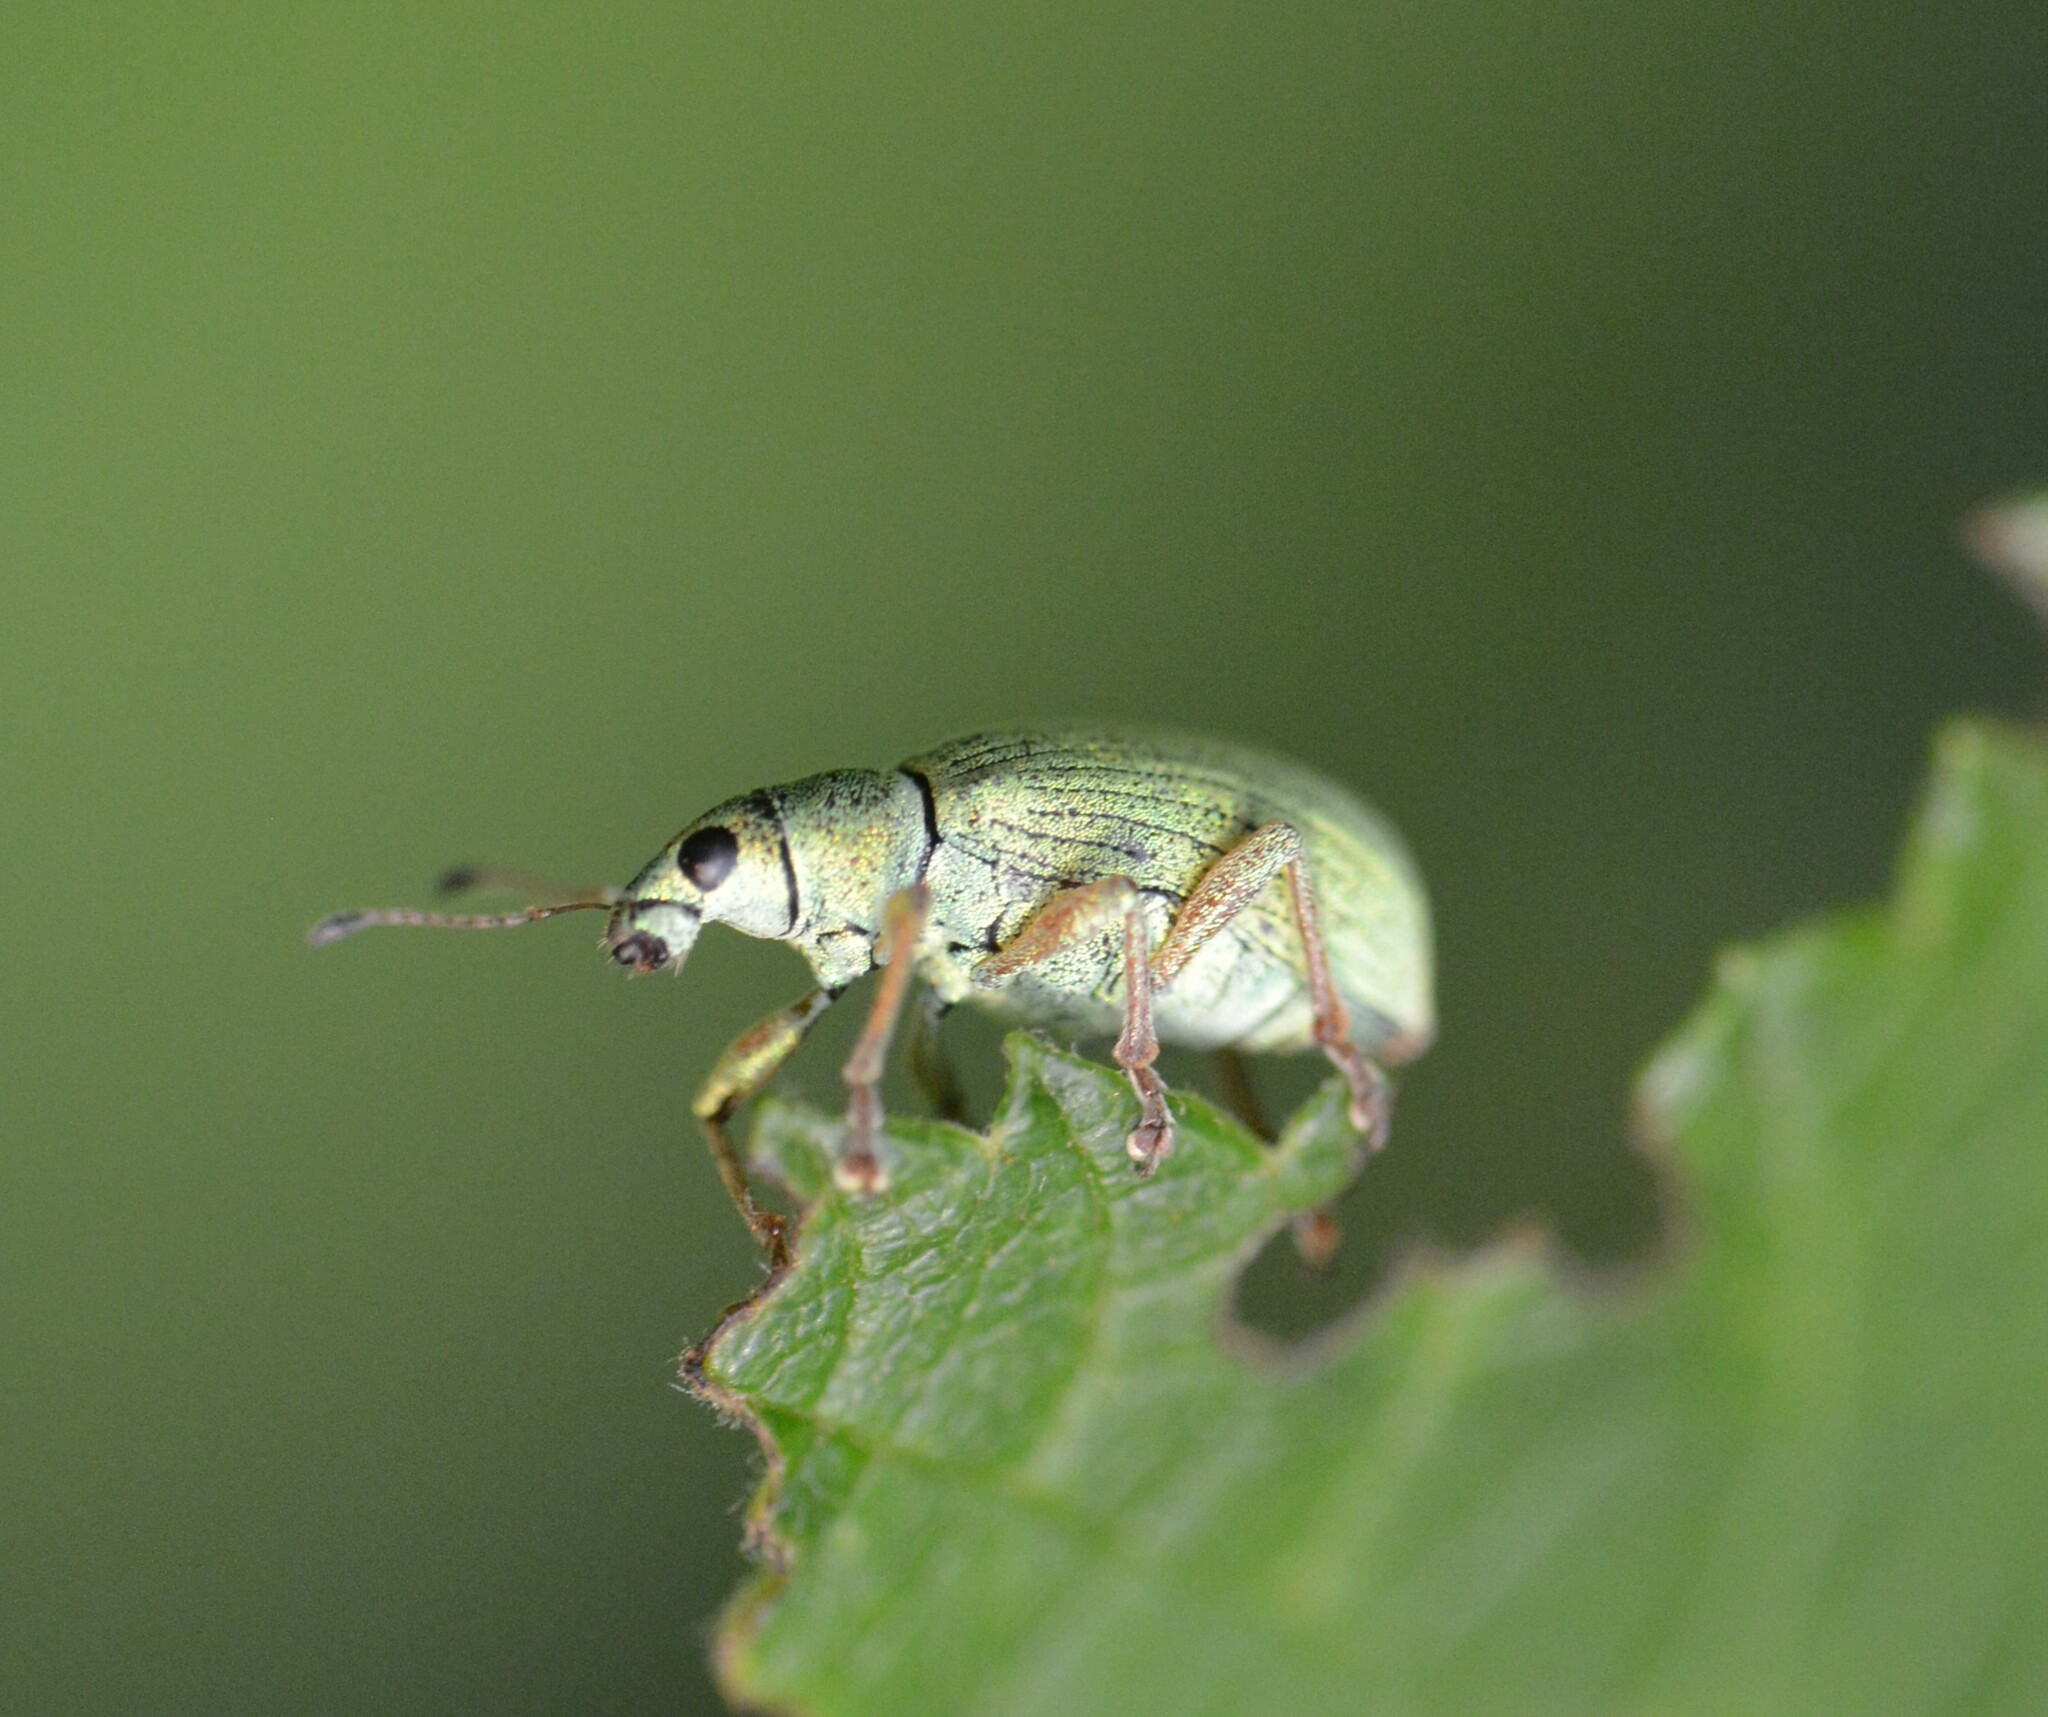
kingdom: Animalia
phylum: Arthropoda
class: Insecta
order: Coleoptera
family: Curculionidae
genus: Polydrusus
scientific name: Polydrusus formosus
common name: Weevil
